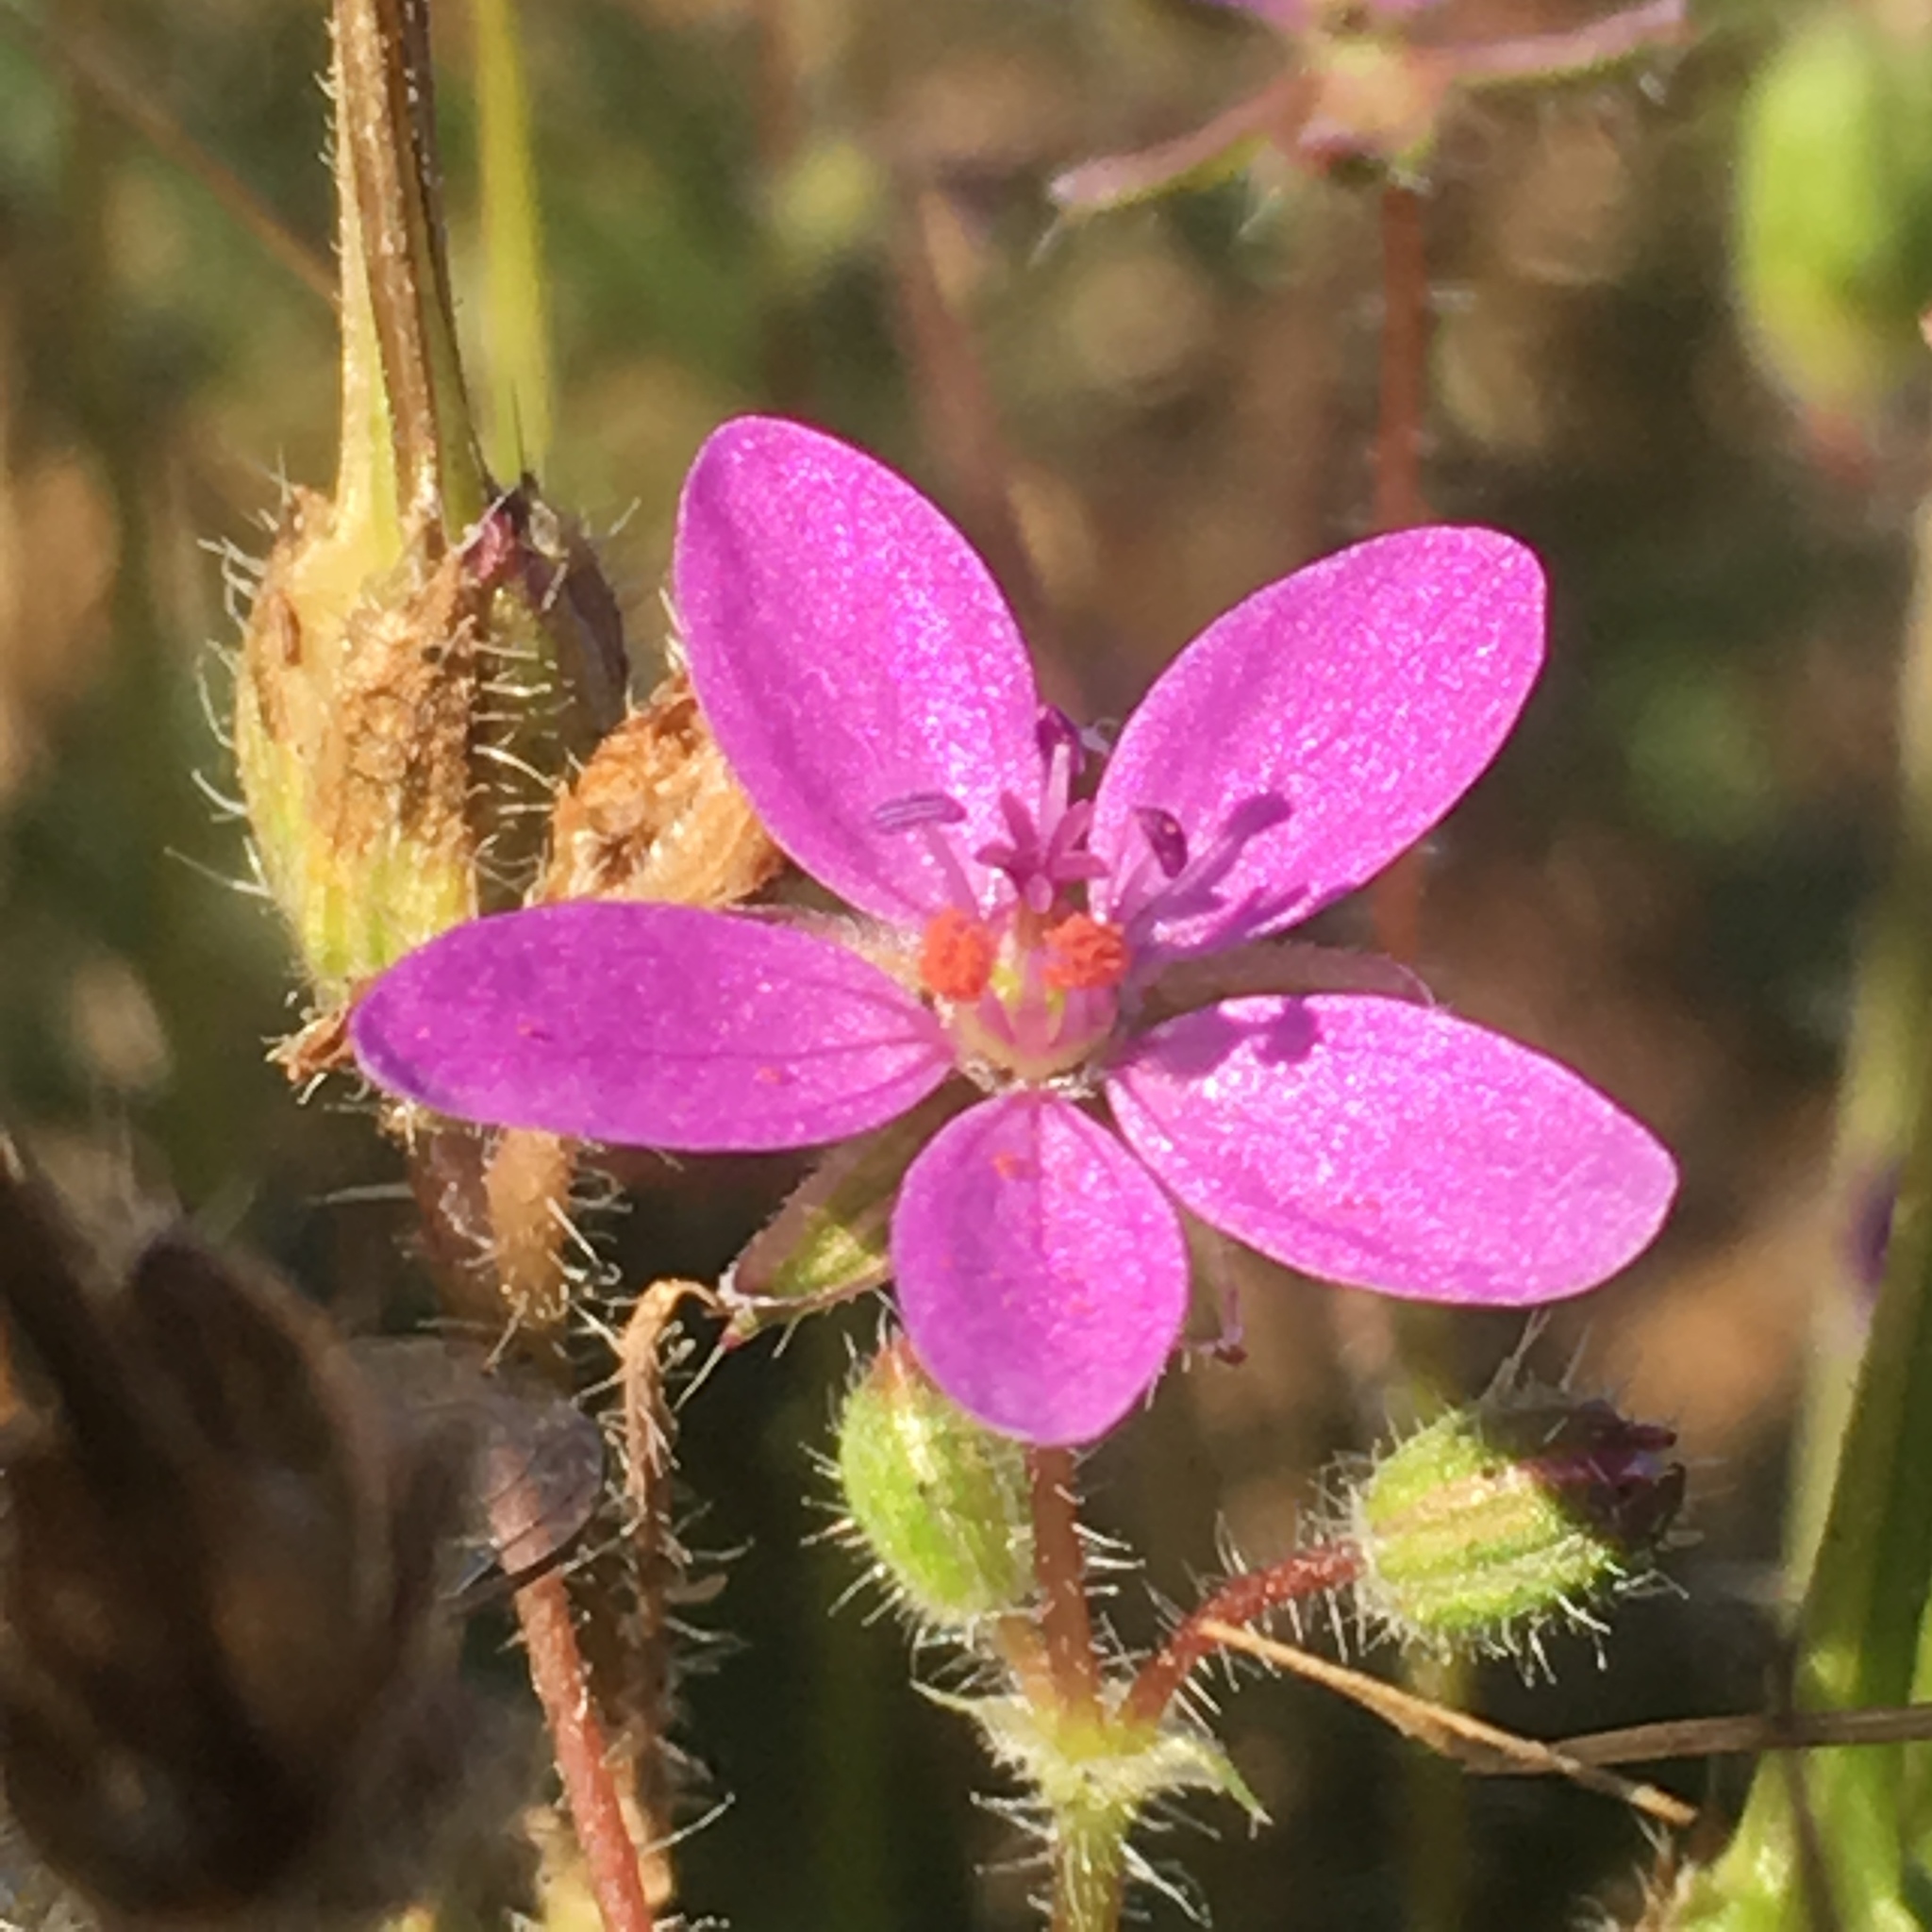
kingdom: Plantae
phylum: Tracheophyta
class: Magnoliopsida
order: Geraniales
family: Geraniaceae
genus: Erodium
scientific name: Erodium cicutarium
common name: Common stork's-bill
